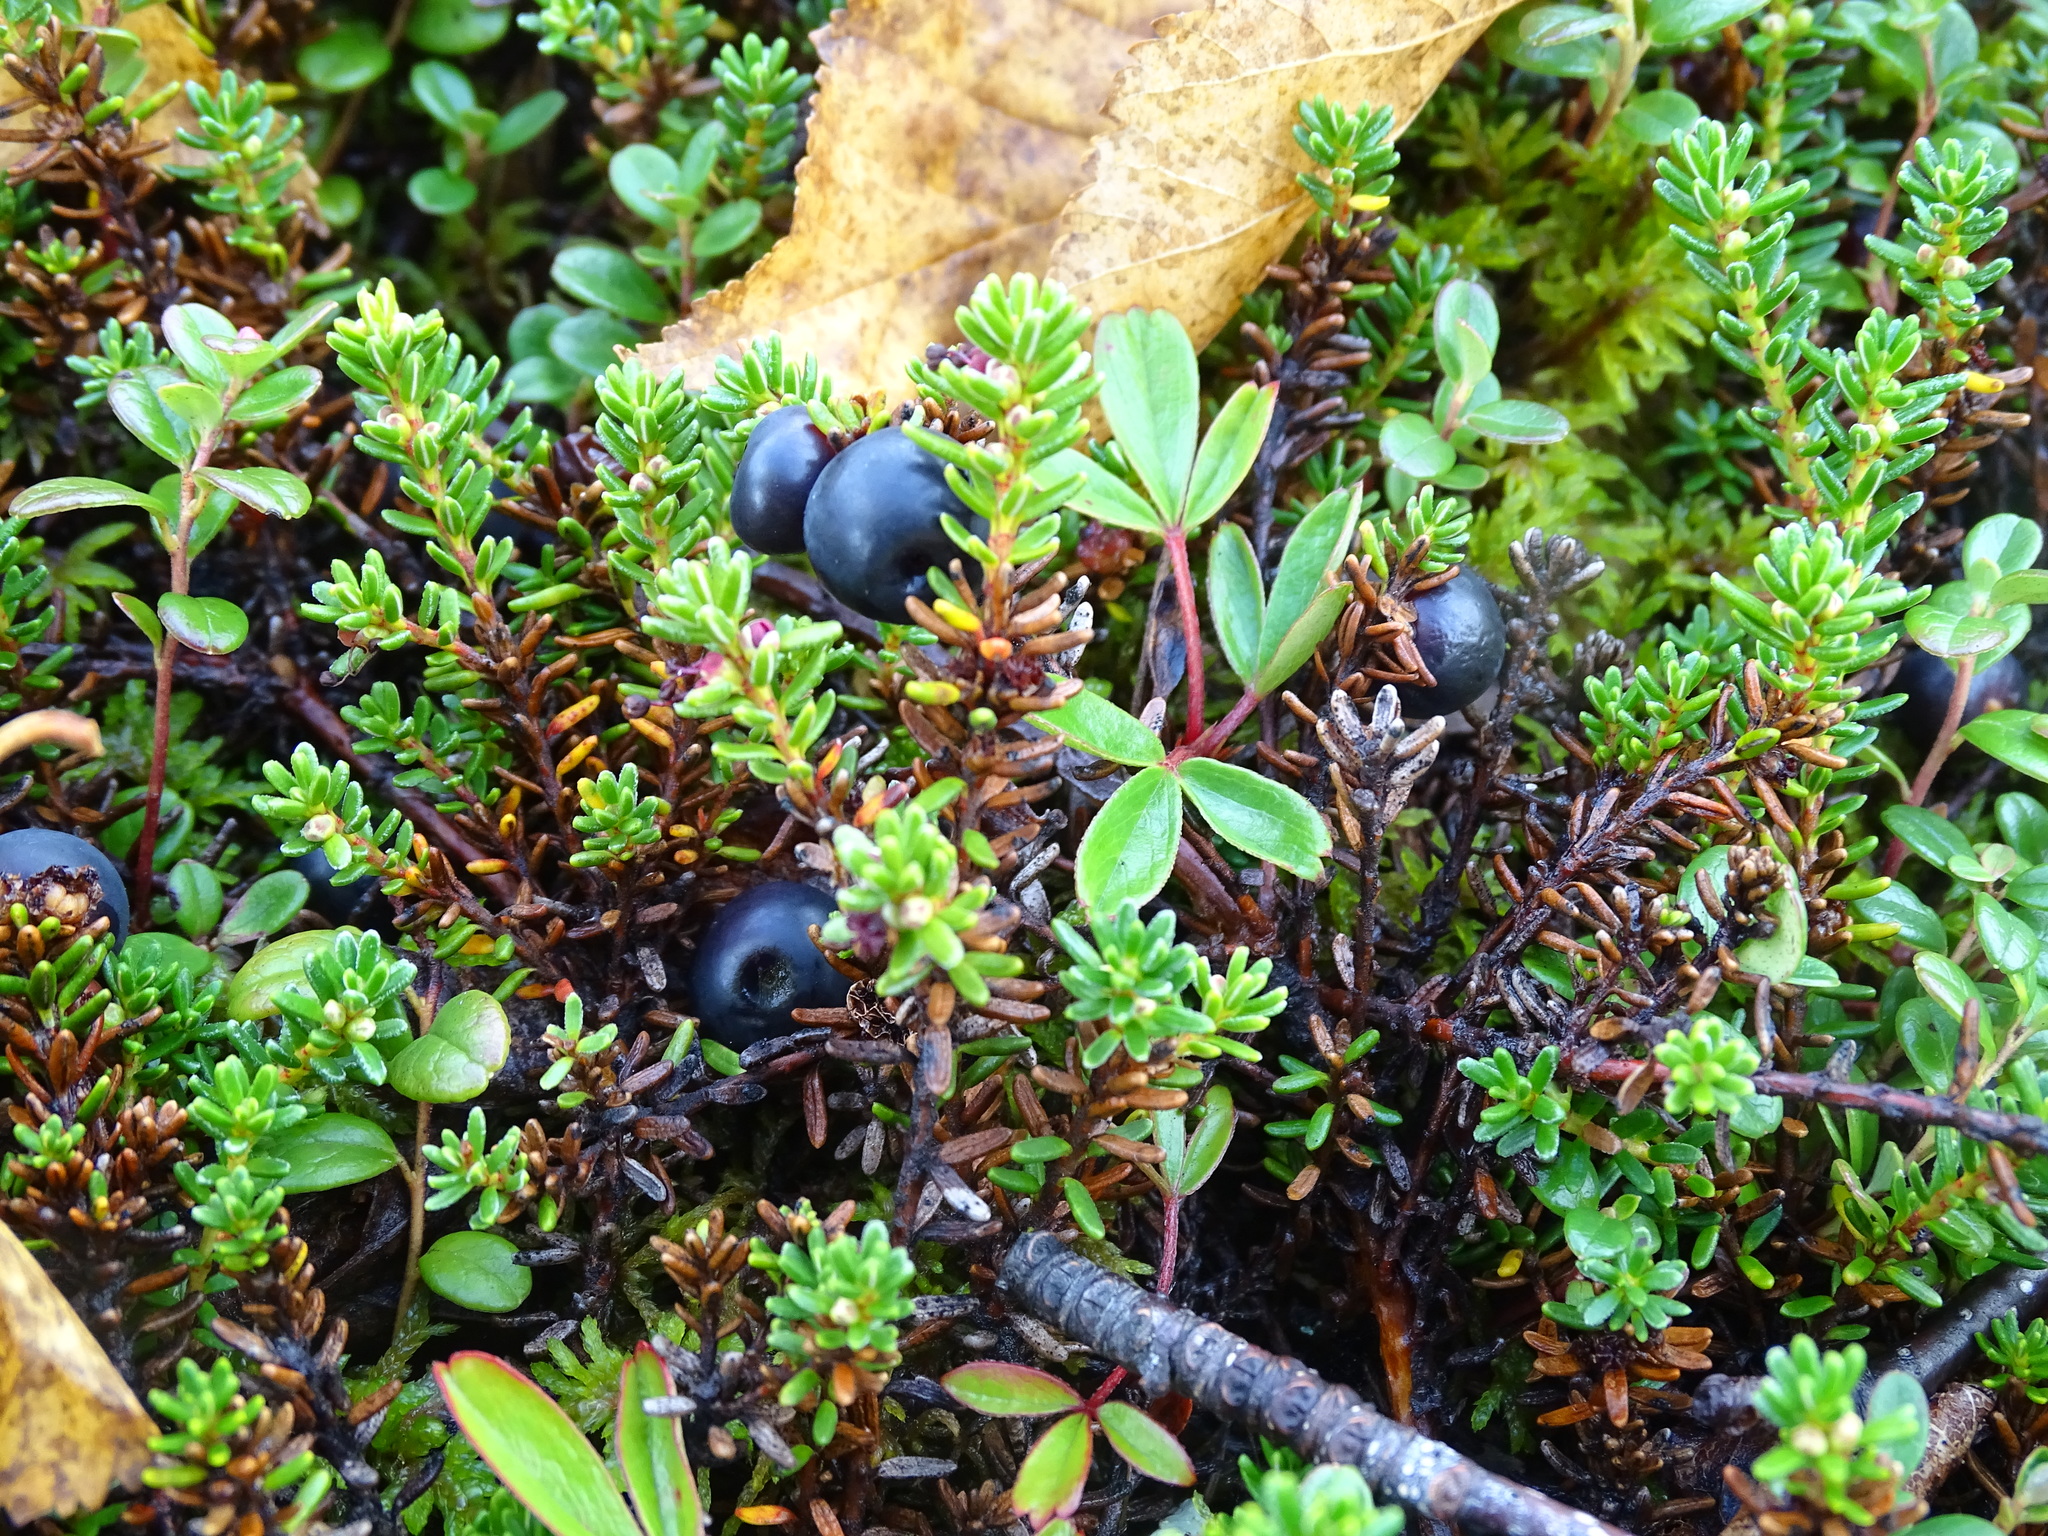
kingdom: Plantae
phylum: Tracheophyta
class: Magnoliopsida
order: Ericales
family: Ericaceae
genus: Empetrum
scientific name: Empetrum nigrum
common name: Black crowberry
